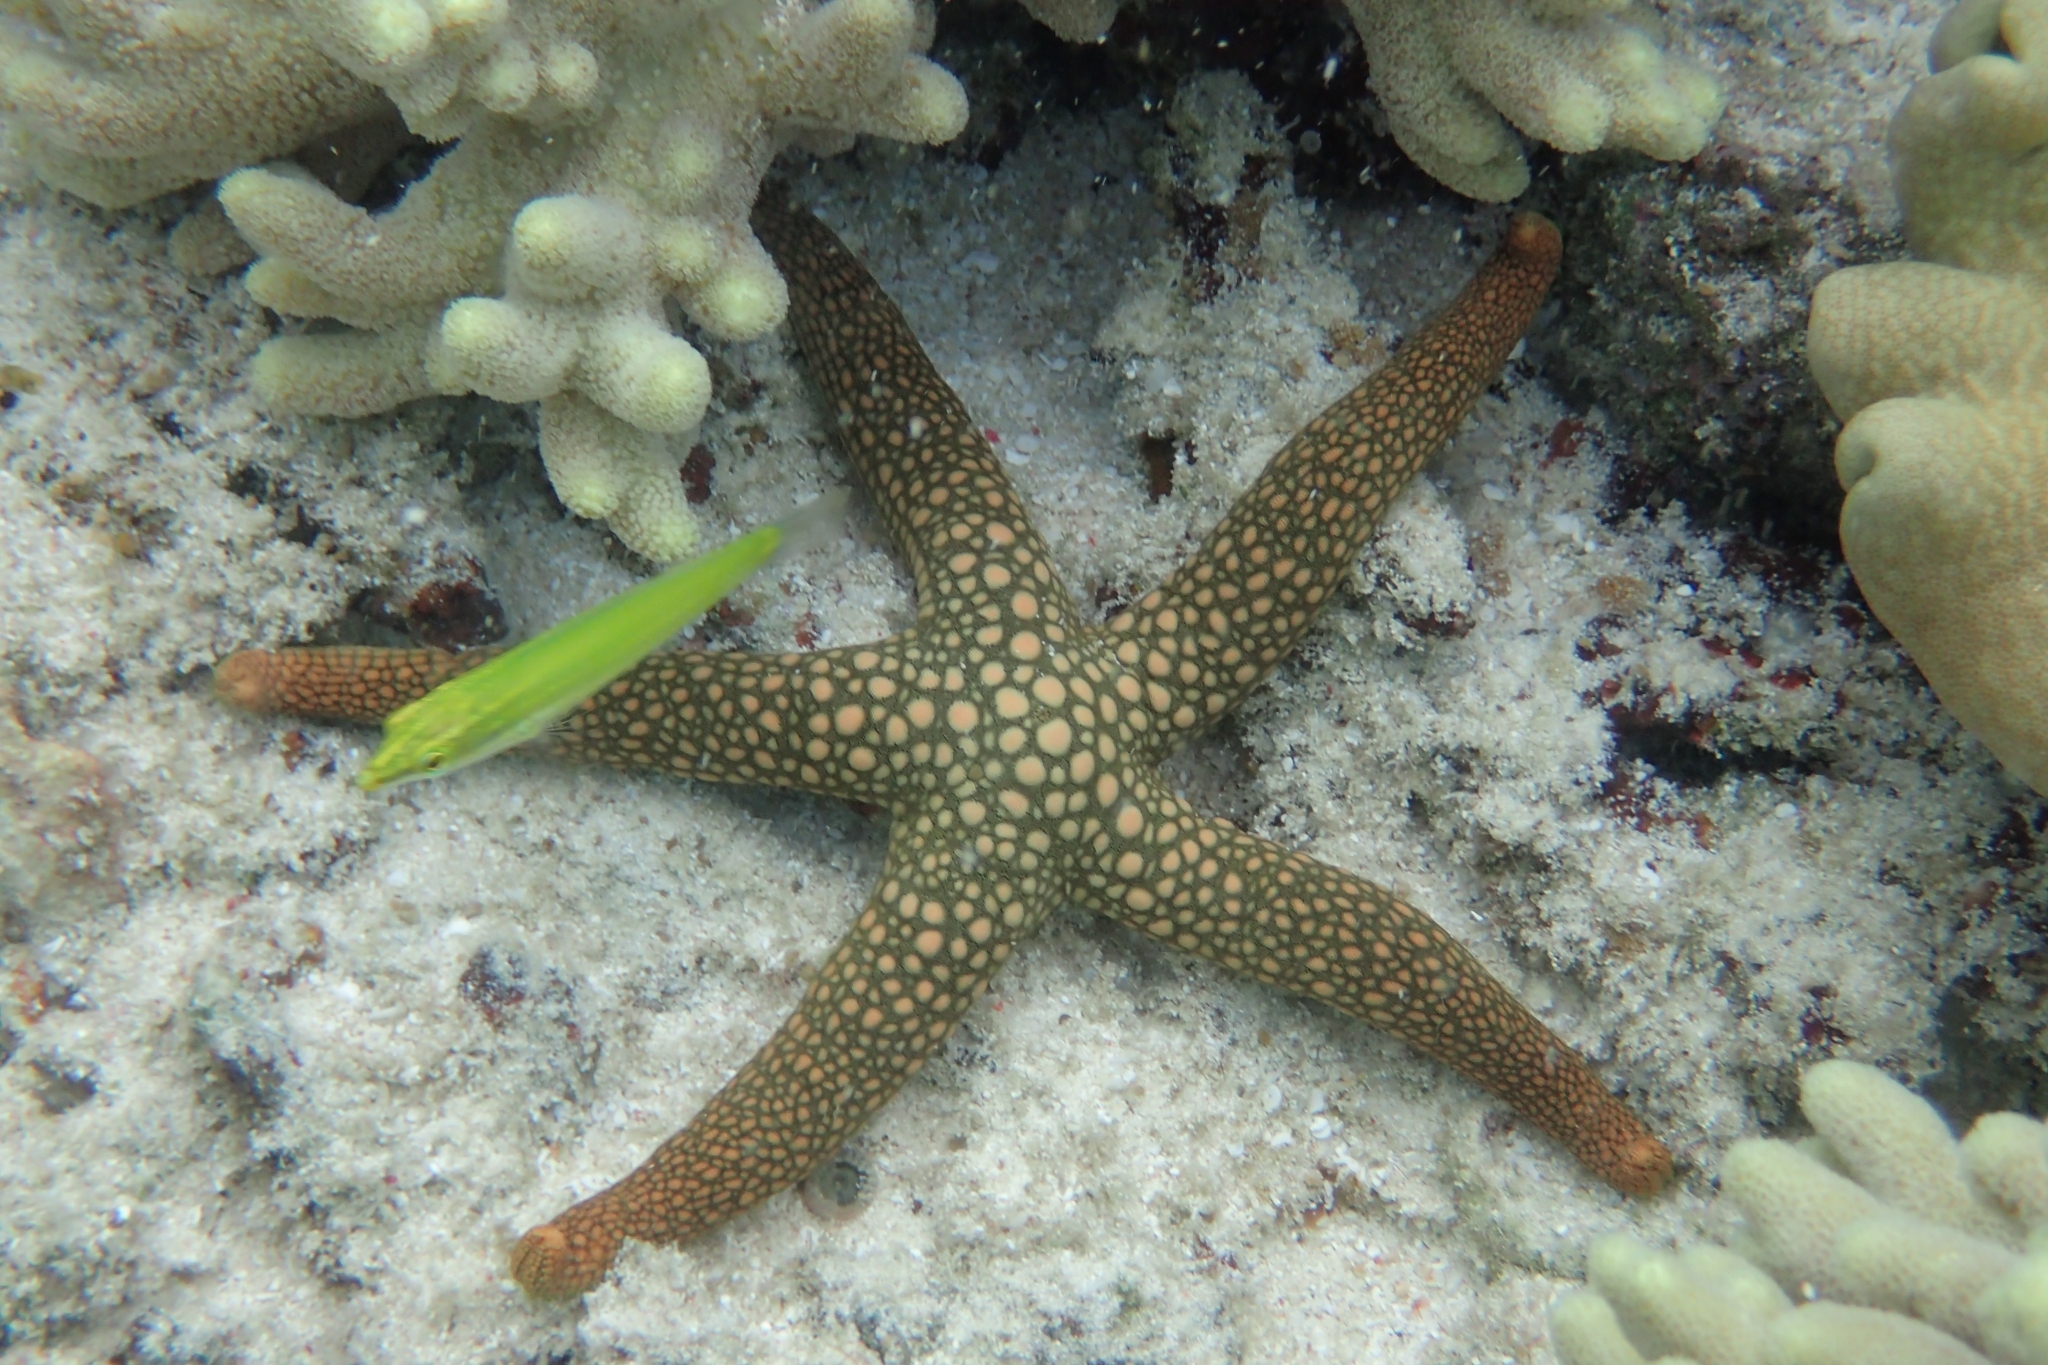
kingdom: Animalia
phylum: Echinodermata
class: Asteroidea
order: Valvatida
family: Ophidiasteridae
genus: Nardoa
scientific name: Nardoa novaecaledoniae
